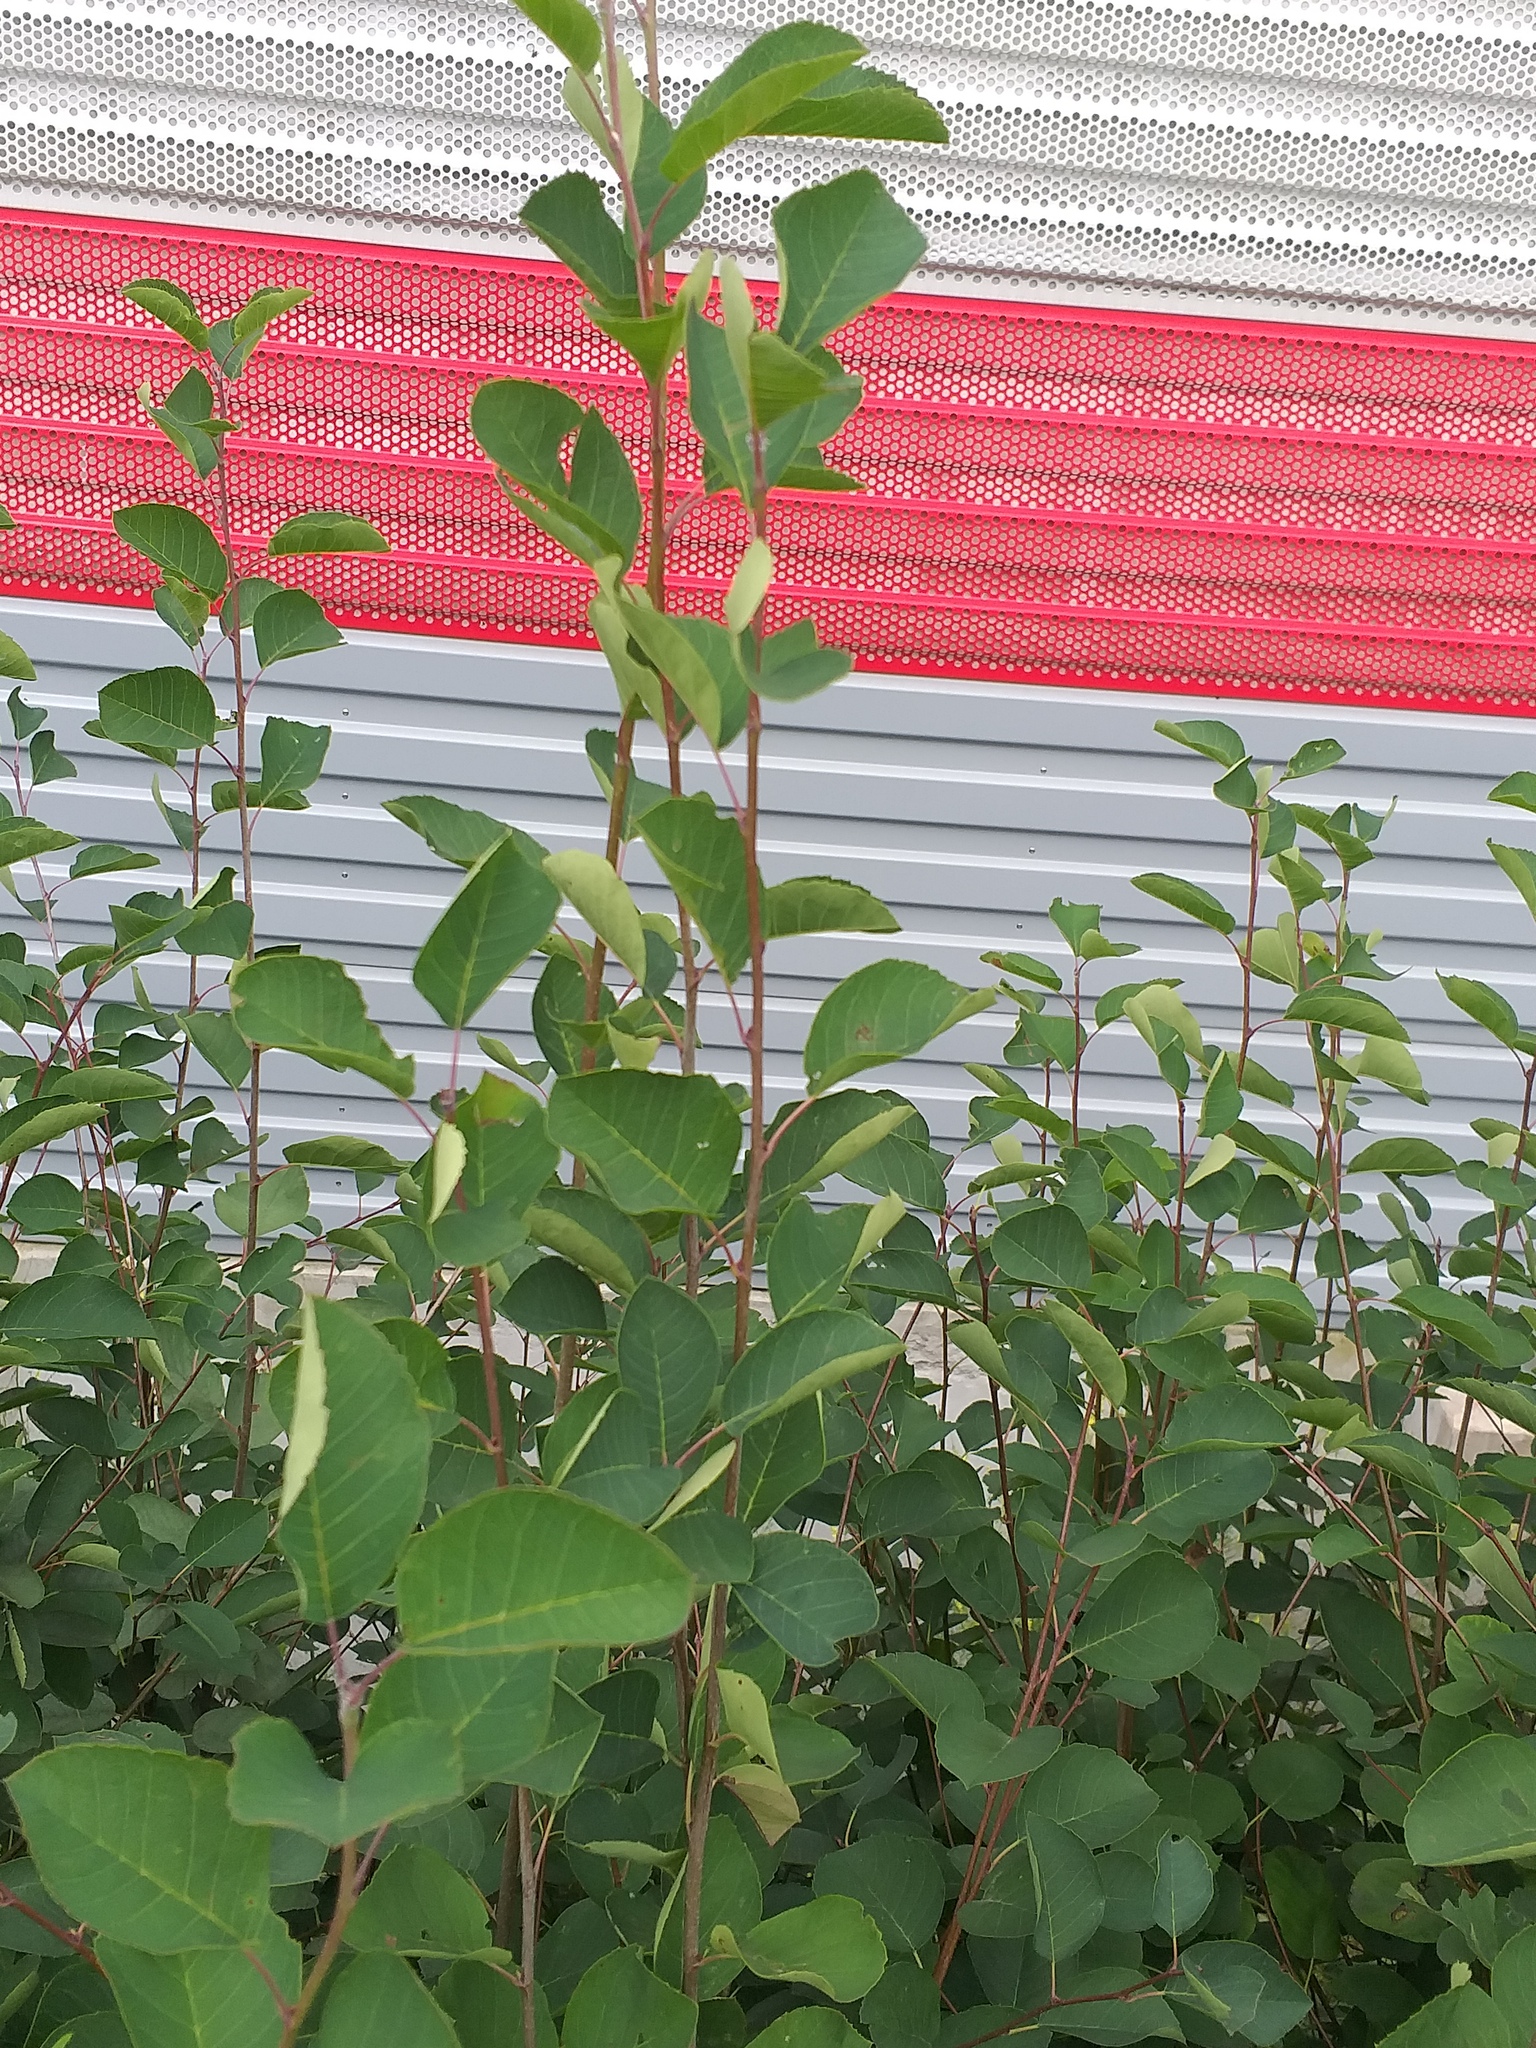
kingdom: Plantae
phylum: Tracheophyta
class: Magnoliopsida
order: Rosales
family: Rosaceae
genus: Amelanchier
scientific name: Amelanchier
